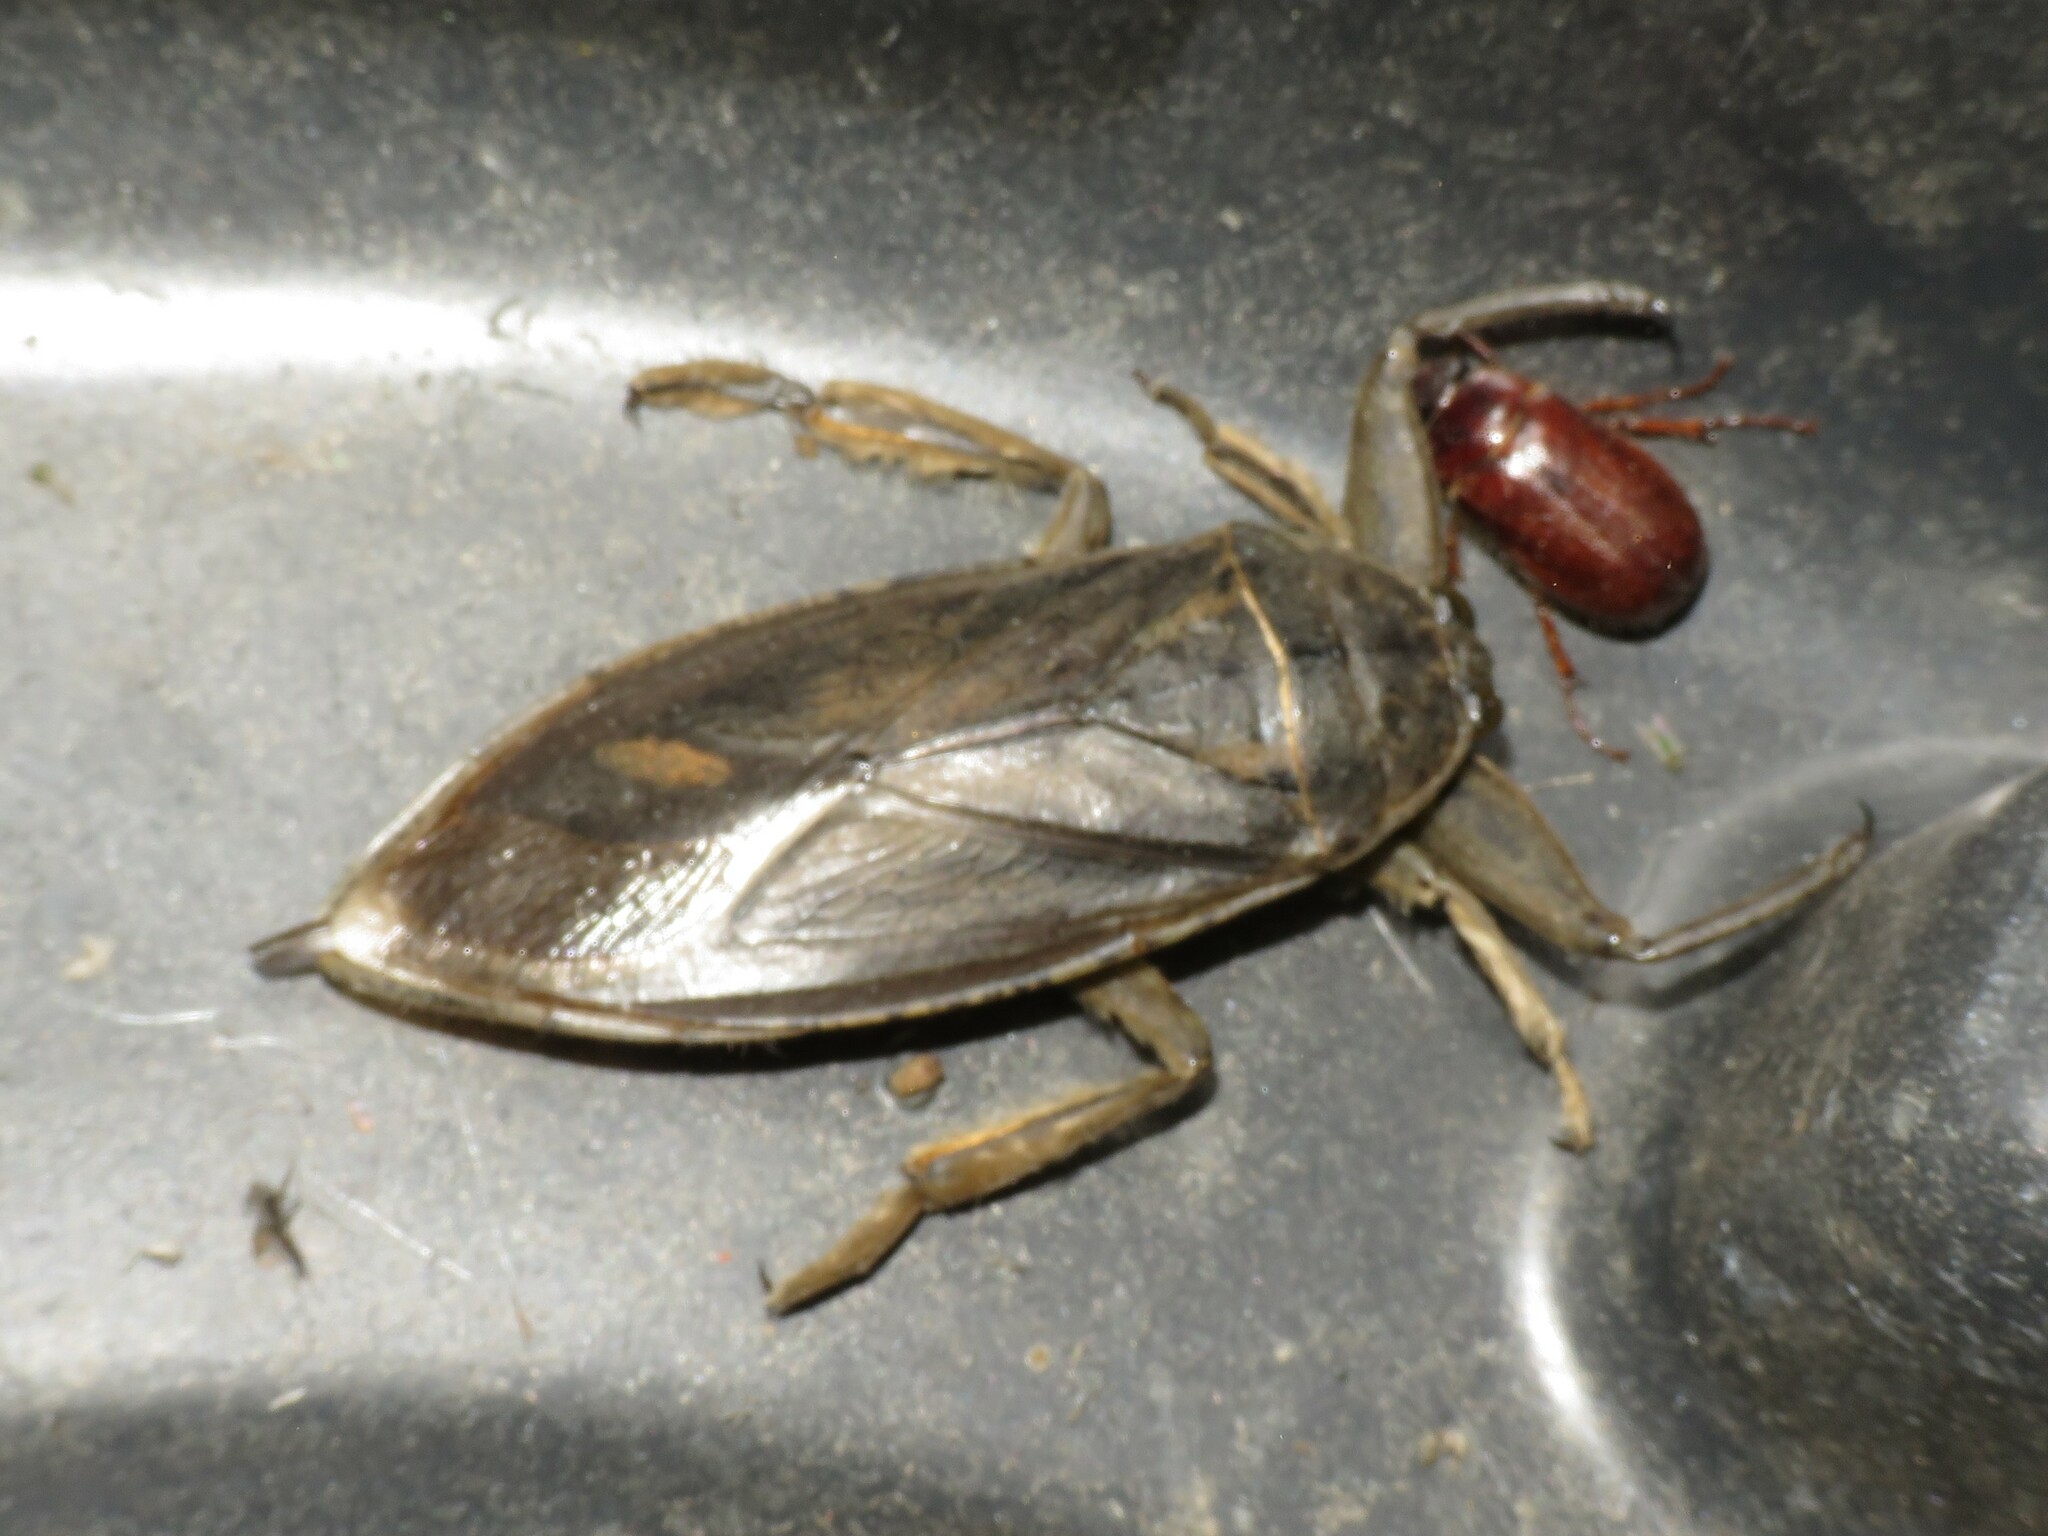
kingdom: Animalia
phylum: Arthropoda
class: Insecta
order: Hemiptera
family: Belostomatidae
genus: Lethocerus
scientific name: Lethocerus americanus
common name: Giant water bug
